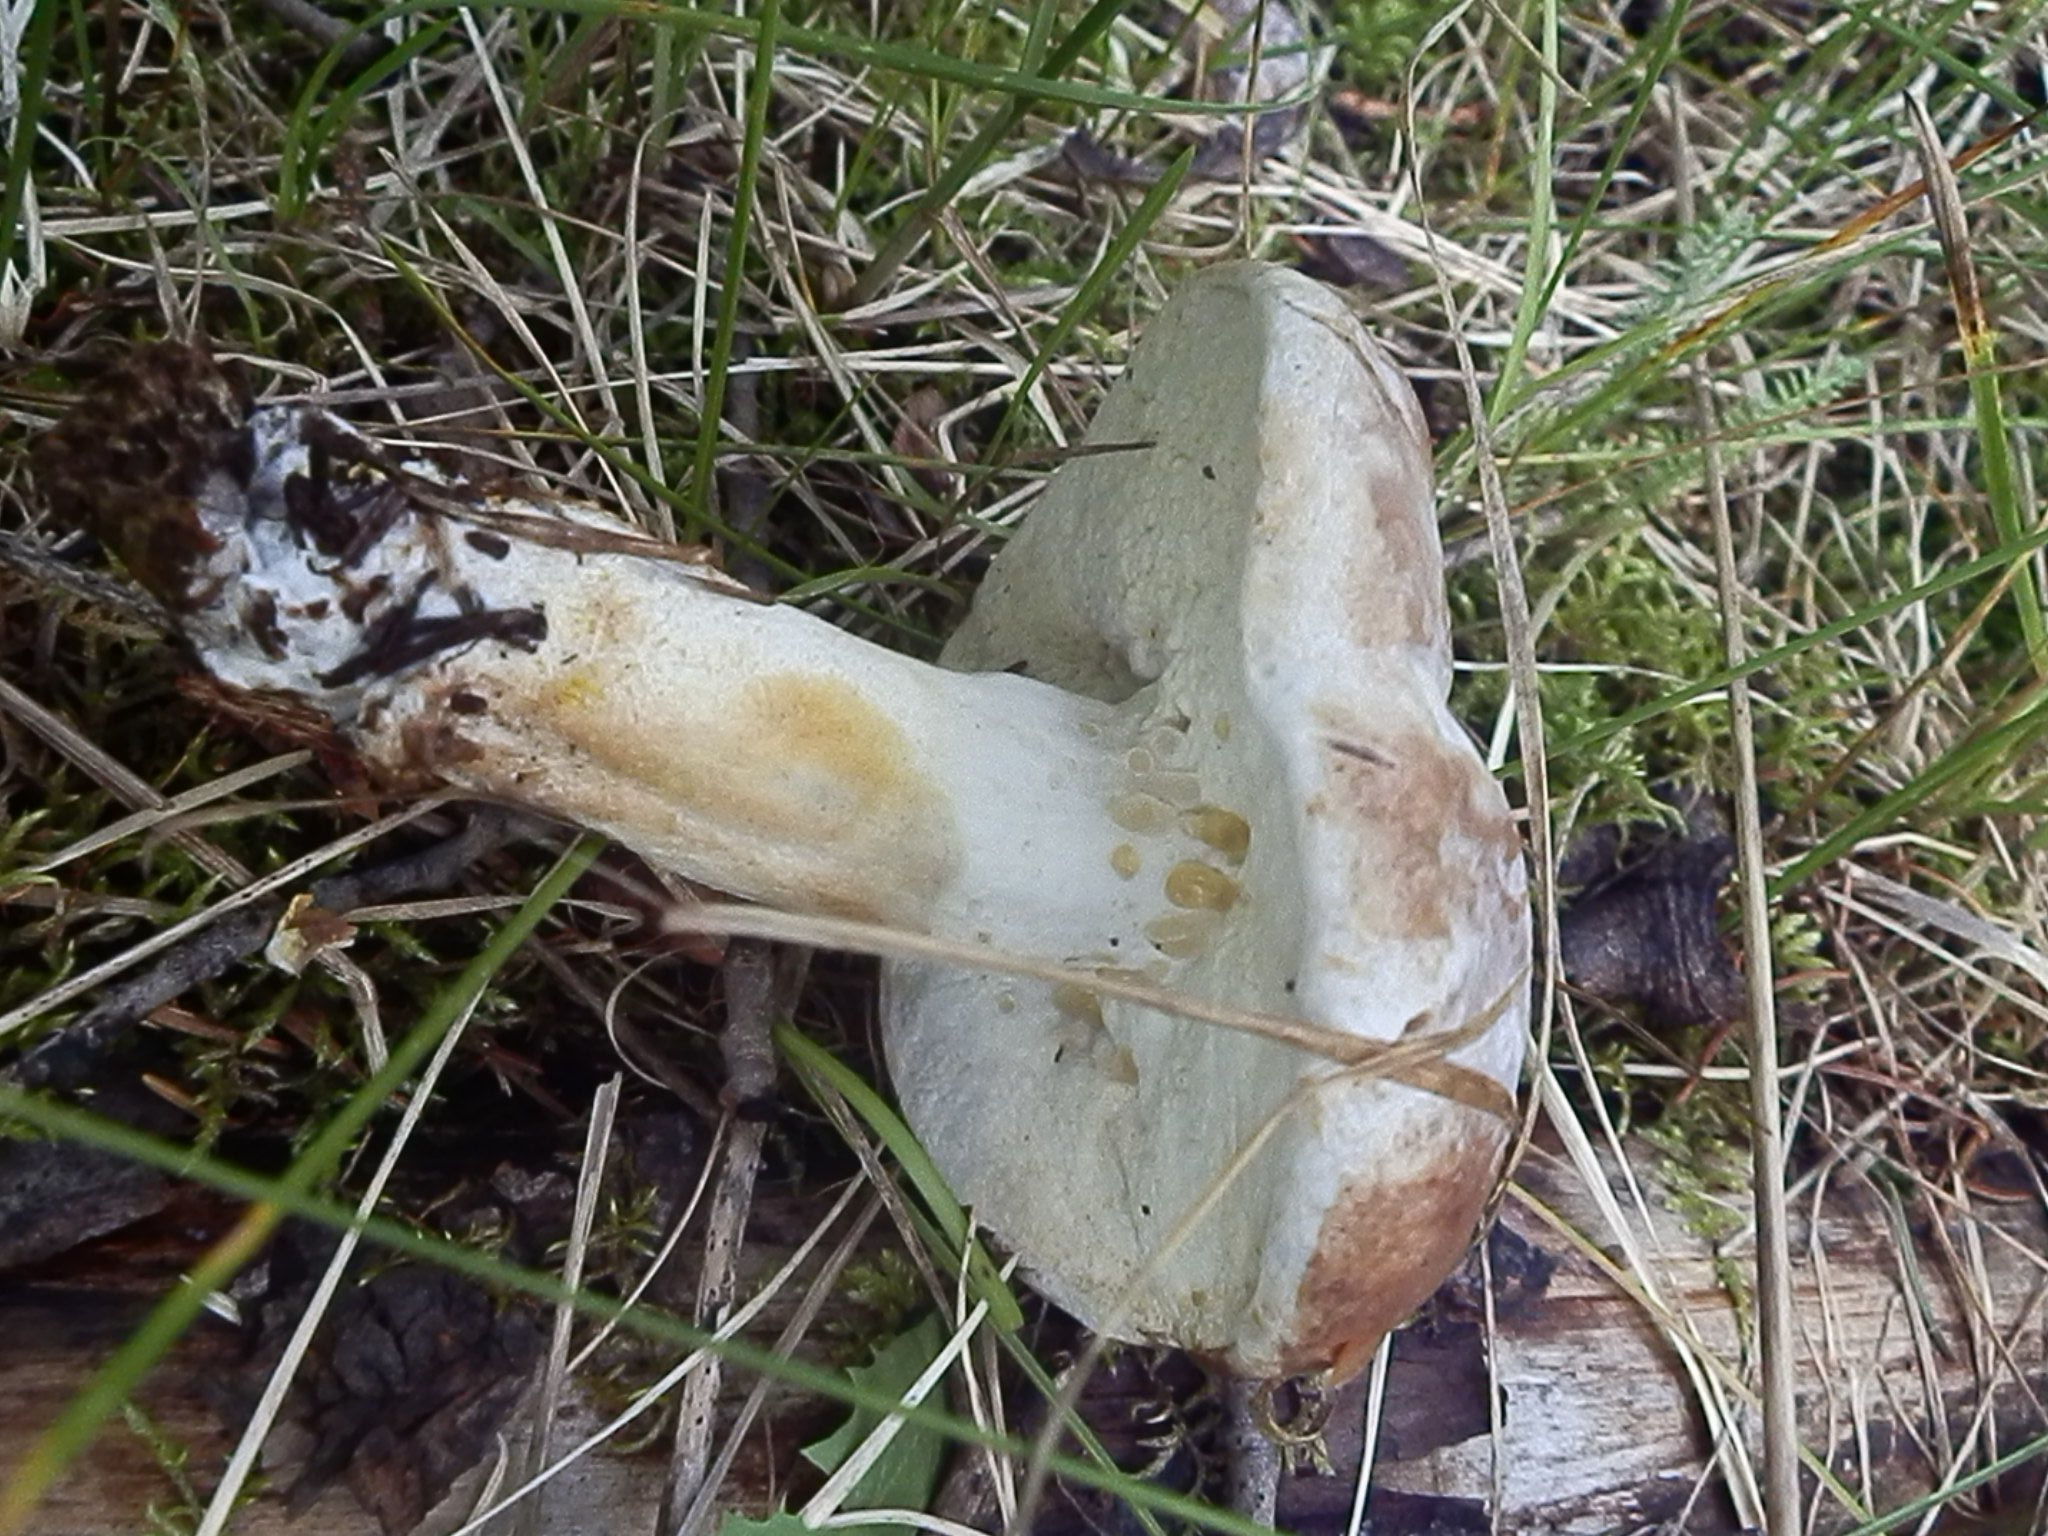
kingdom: Fungi
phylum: Ascomycota
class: Sordariomycetes
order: Hypocreales
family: Hypocreaceae
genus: Hypomyces
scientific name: Hypomyces chrysospermus
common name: Bolete mould
